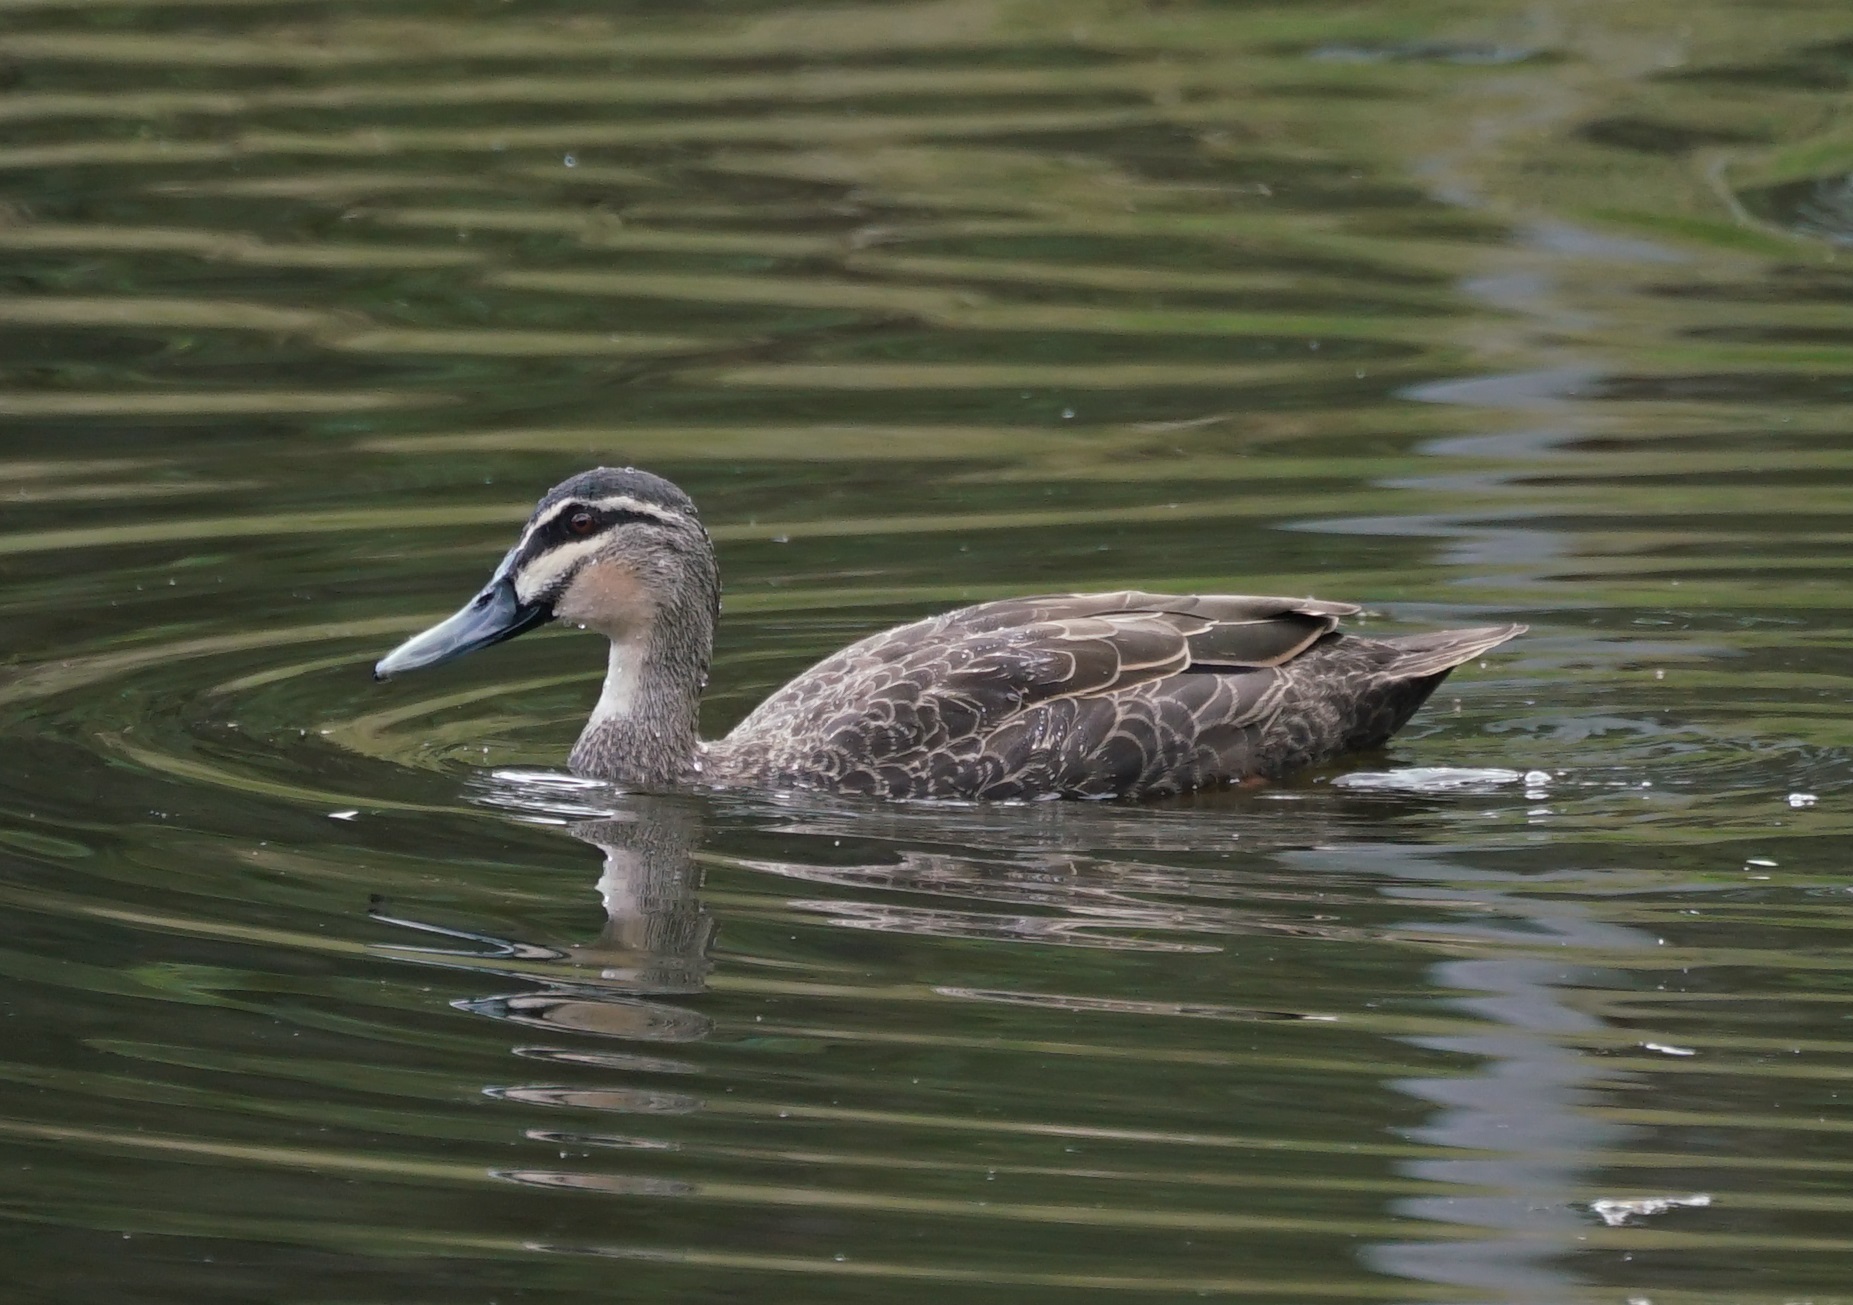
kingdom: Animalia
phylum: Chordata
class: Aves
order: Anseriformes
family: Anatidae
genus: Anas
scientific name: Anas superciliosa
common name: Pacific black duck
